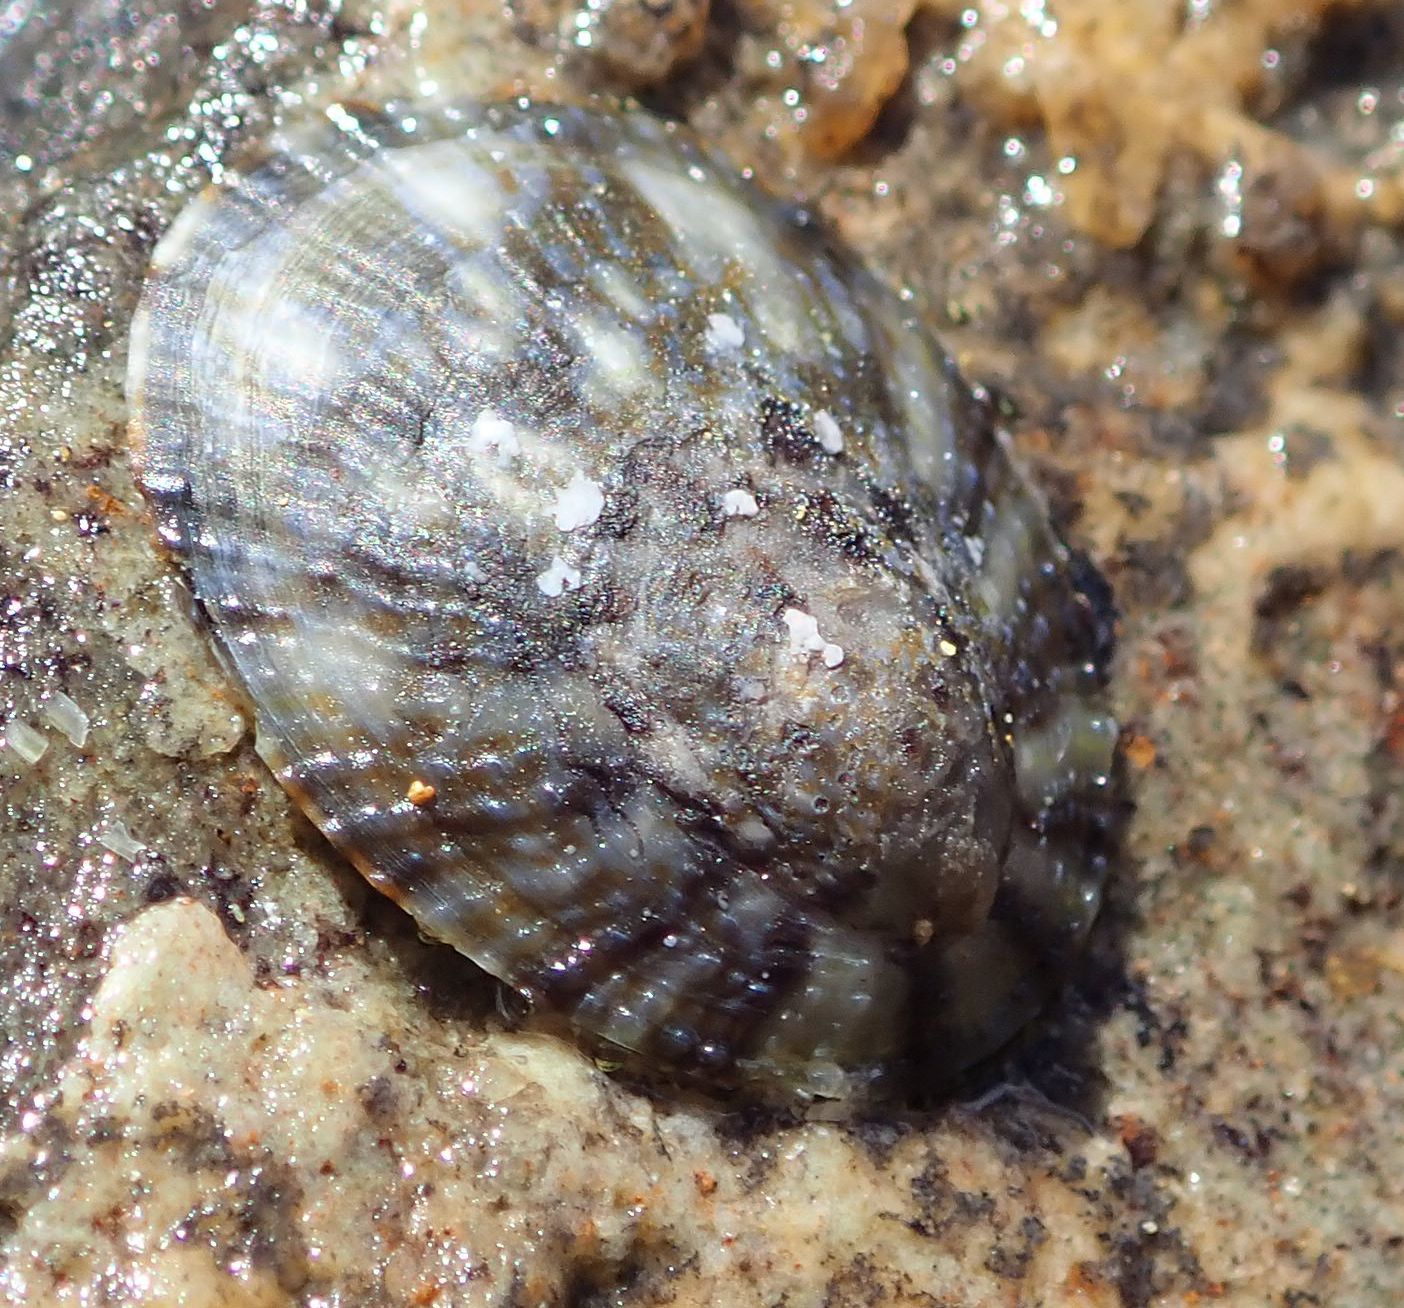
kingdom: Animalia
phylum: Mollusca
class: Gastropoda
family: Nacellidae
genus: Cellana
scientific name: Cellana radians
